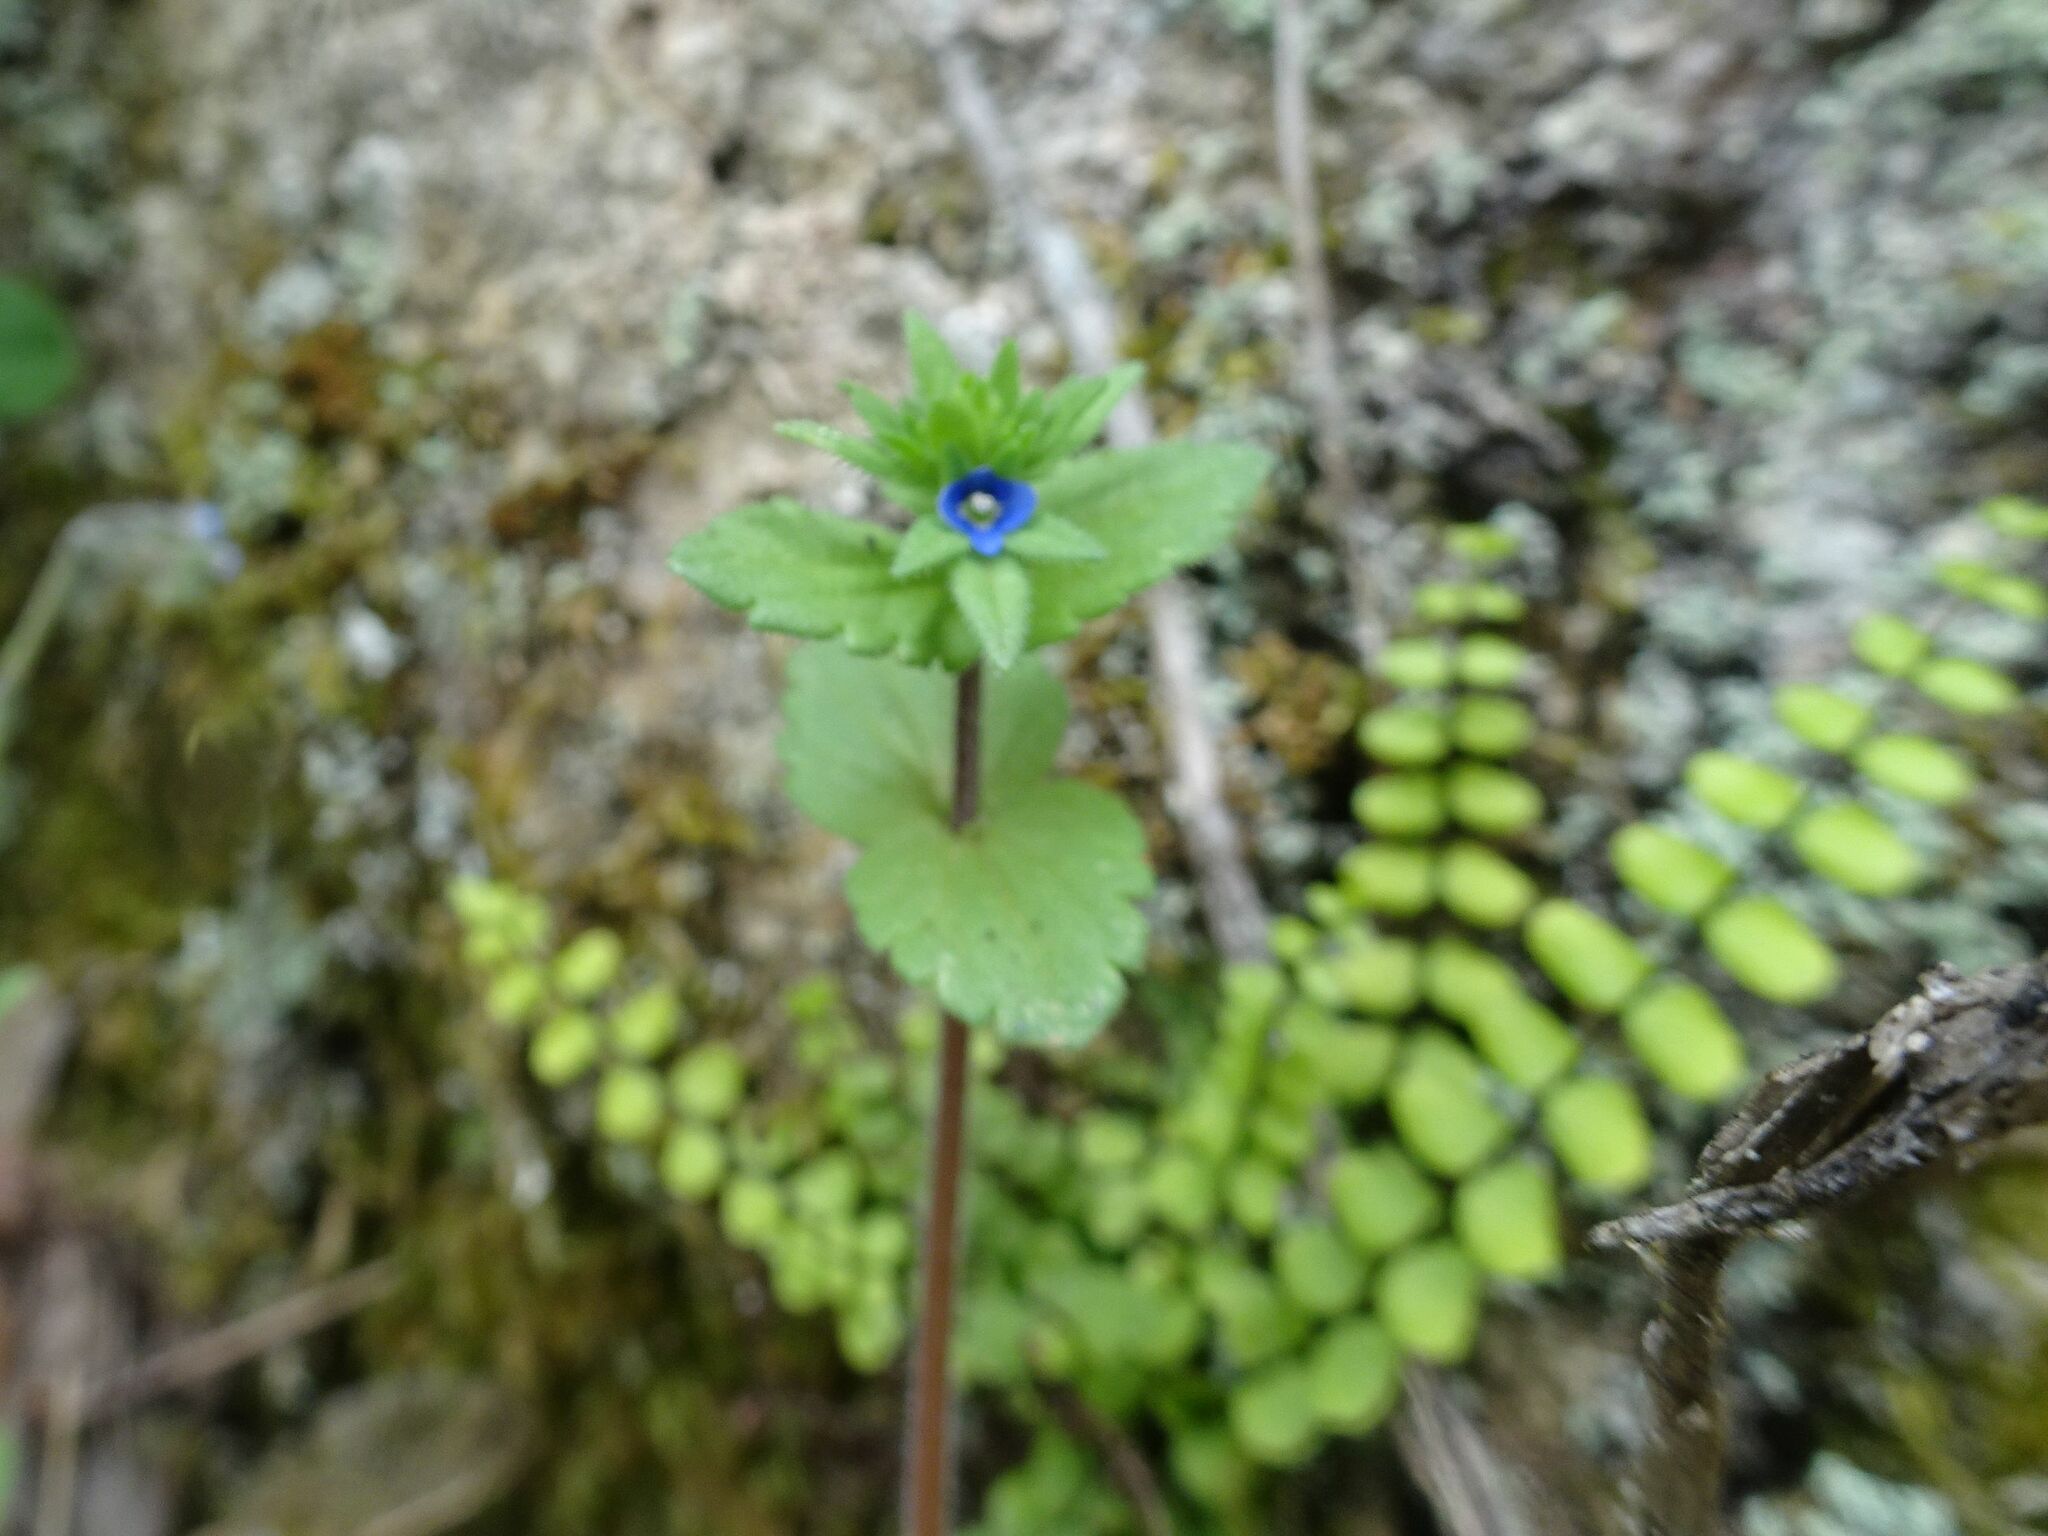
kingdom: Plantae
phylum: Tracheophyta
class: Magnoliopsida
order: Lamiales
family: Plantaginaceae
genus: Veronica
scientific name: Veronica arvensis
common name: Corn speedwell
